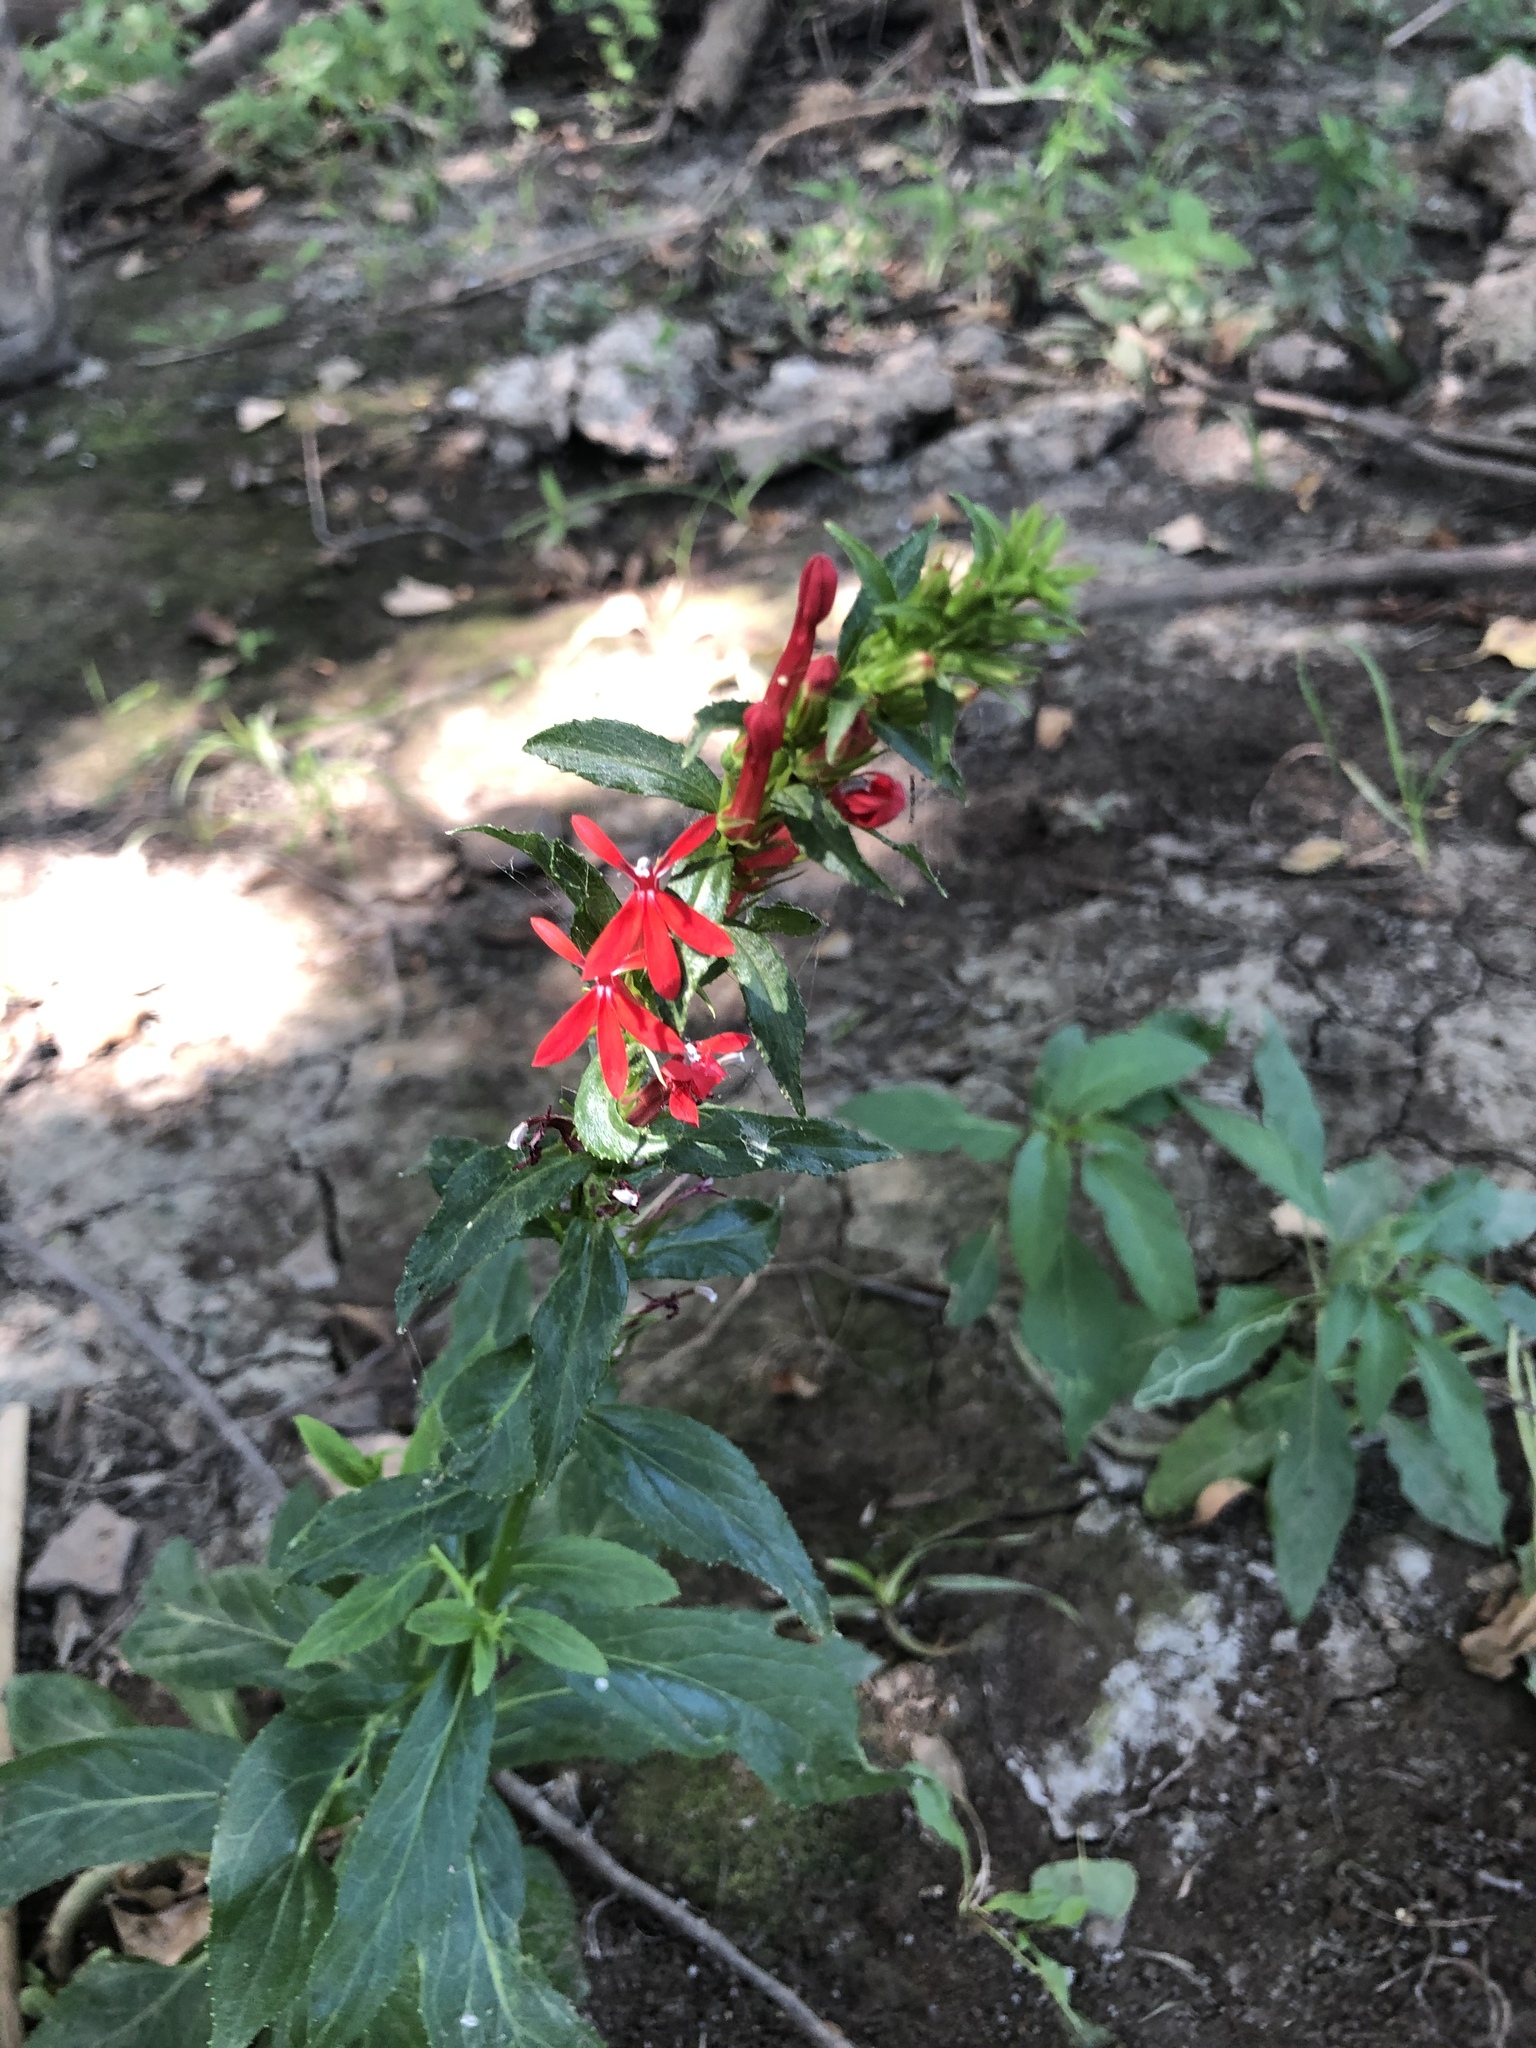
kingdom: Plantae
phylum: Tracheophyta
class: Magnoliopsida
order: Asterales
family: Campanulaceae
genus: Lobelia
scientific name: Lobelia cardinalis
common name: Cardinal flower
